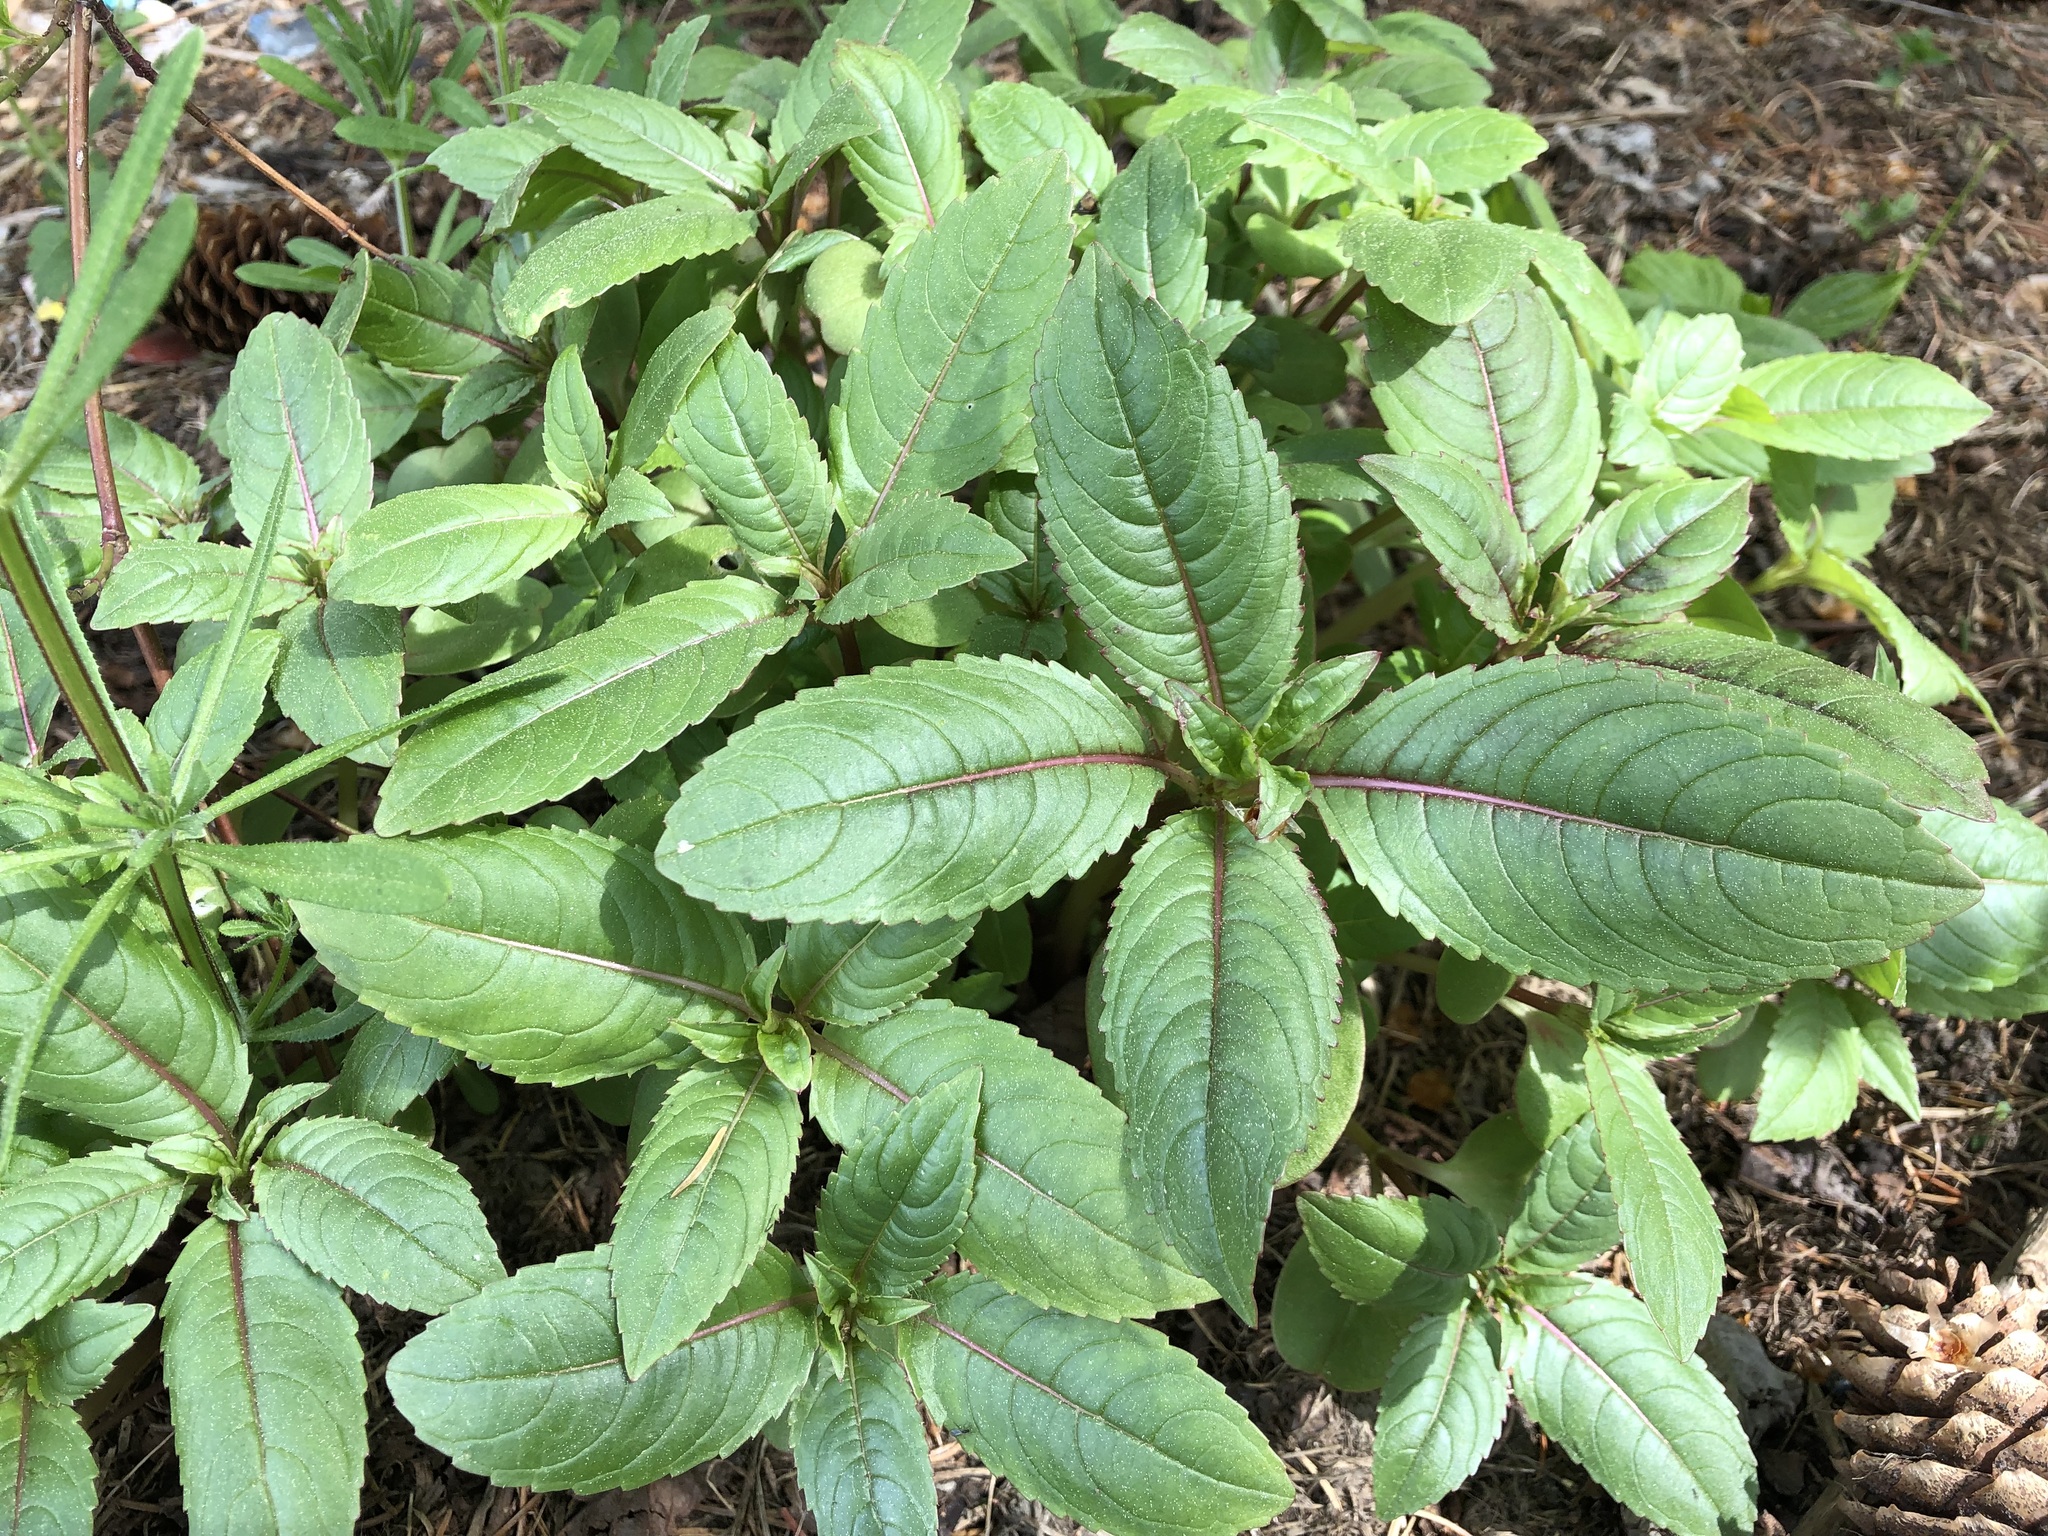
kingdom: Plantae
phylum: Tracheophyta
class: Magnoliopsida
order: Ericales
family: Balsaminaceae
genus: Impatiens
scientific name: Impatiens glandulifera
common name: Himalayan balsam
